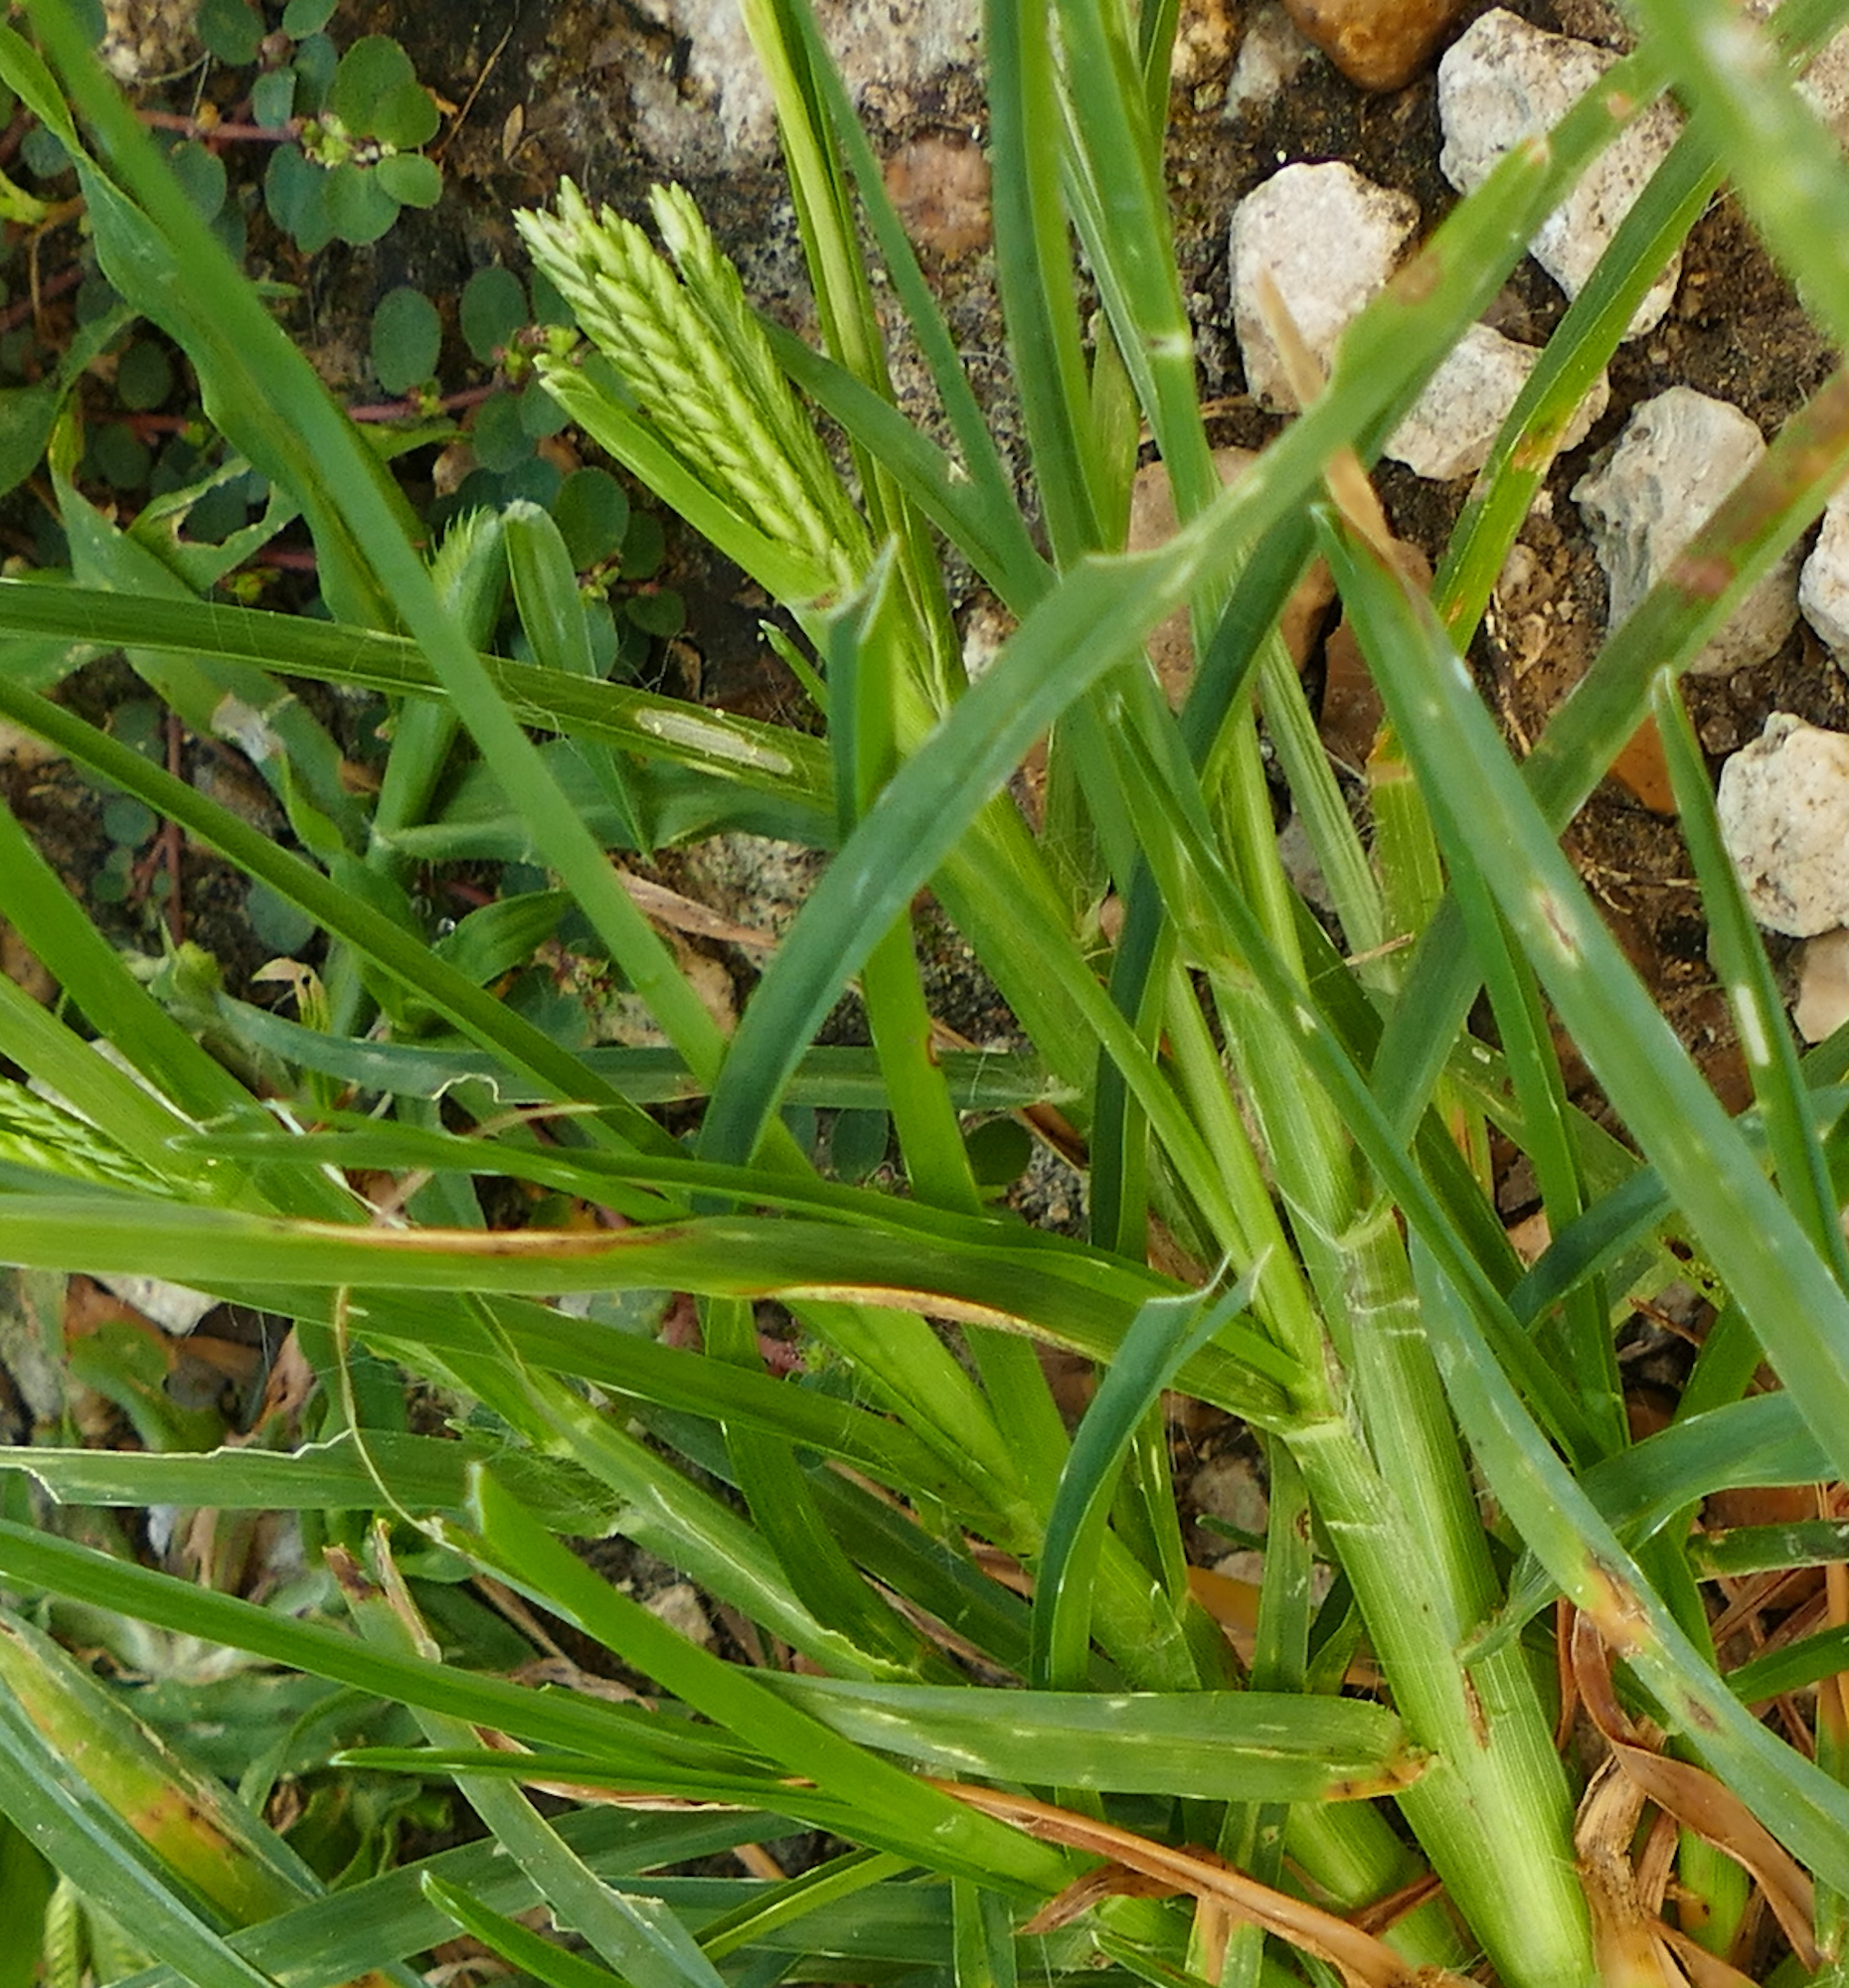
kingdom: Plantae
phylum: Tracheophyta
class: Liliopsida
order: Poales
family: Poaceae
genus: Eleusine
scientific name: Eleusine indica
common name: Yard-grass
